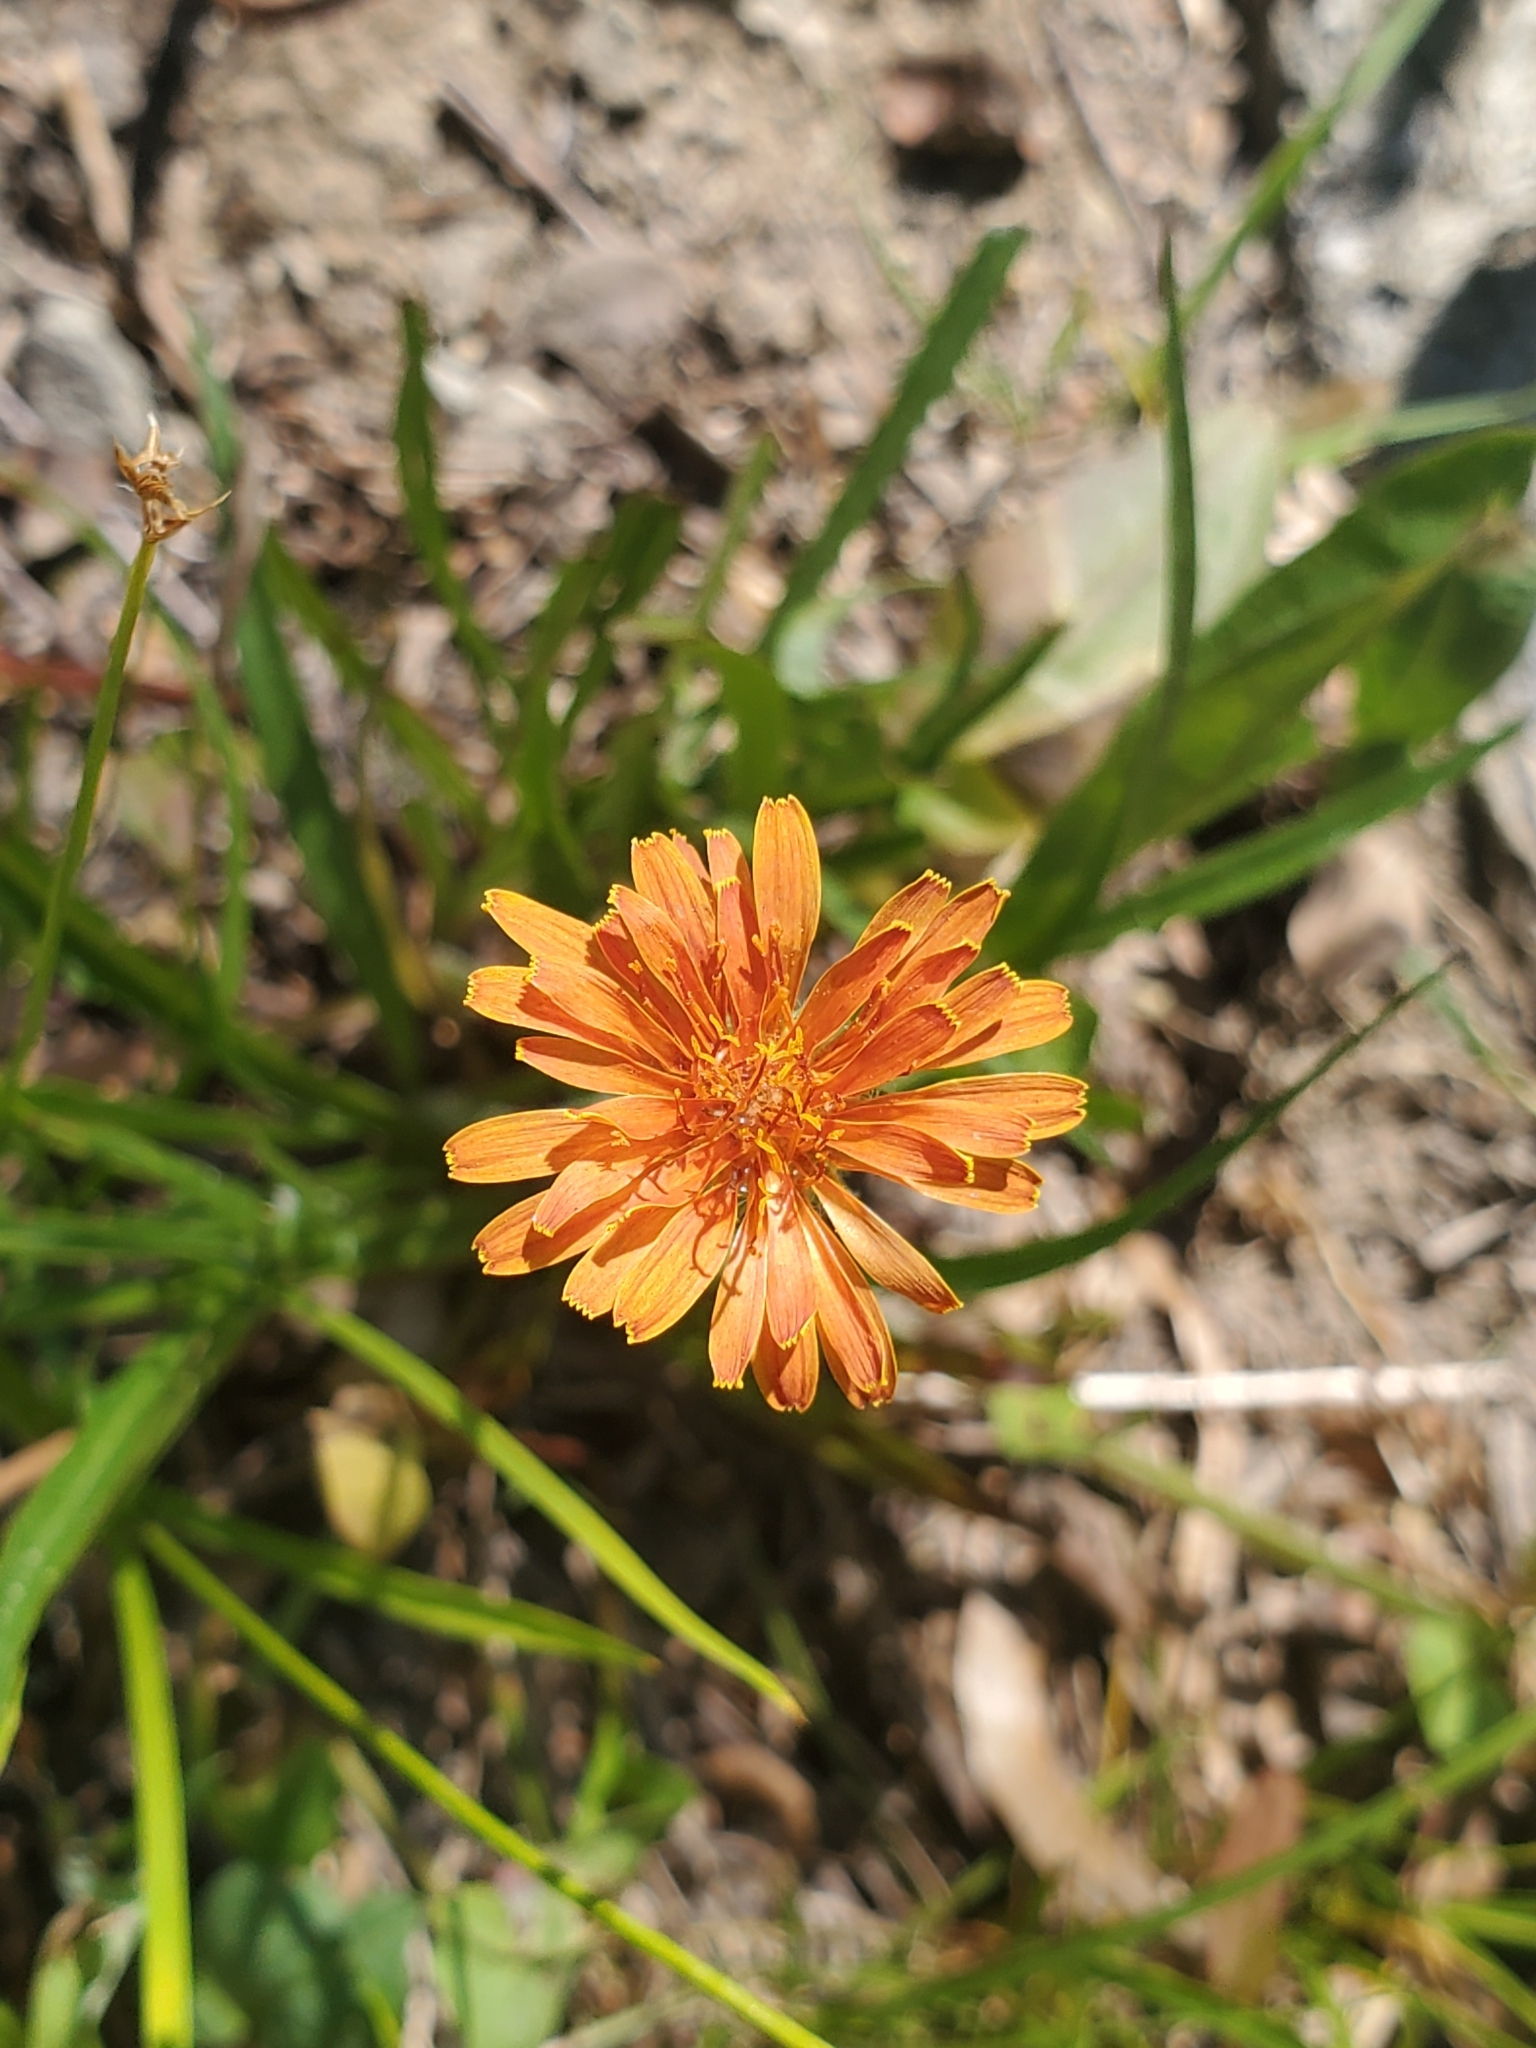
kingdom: Plantae
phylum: Tracheophyta
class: Magnoliopsida
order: Asterales
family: Asteraceae
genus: Agoseris
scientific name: Agoseris aurantiaca
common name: Mountain agoseris
